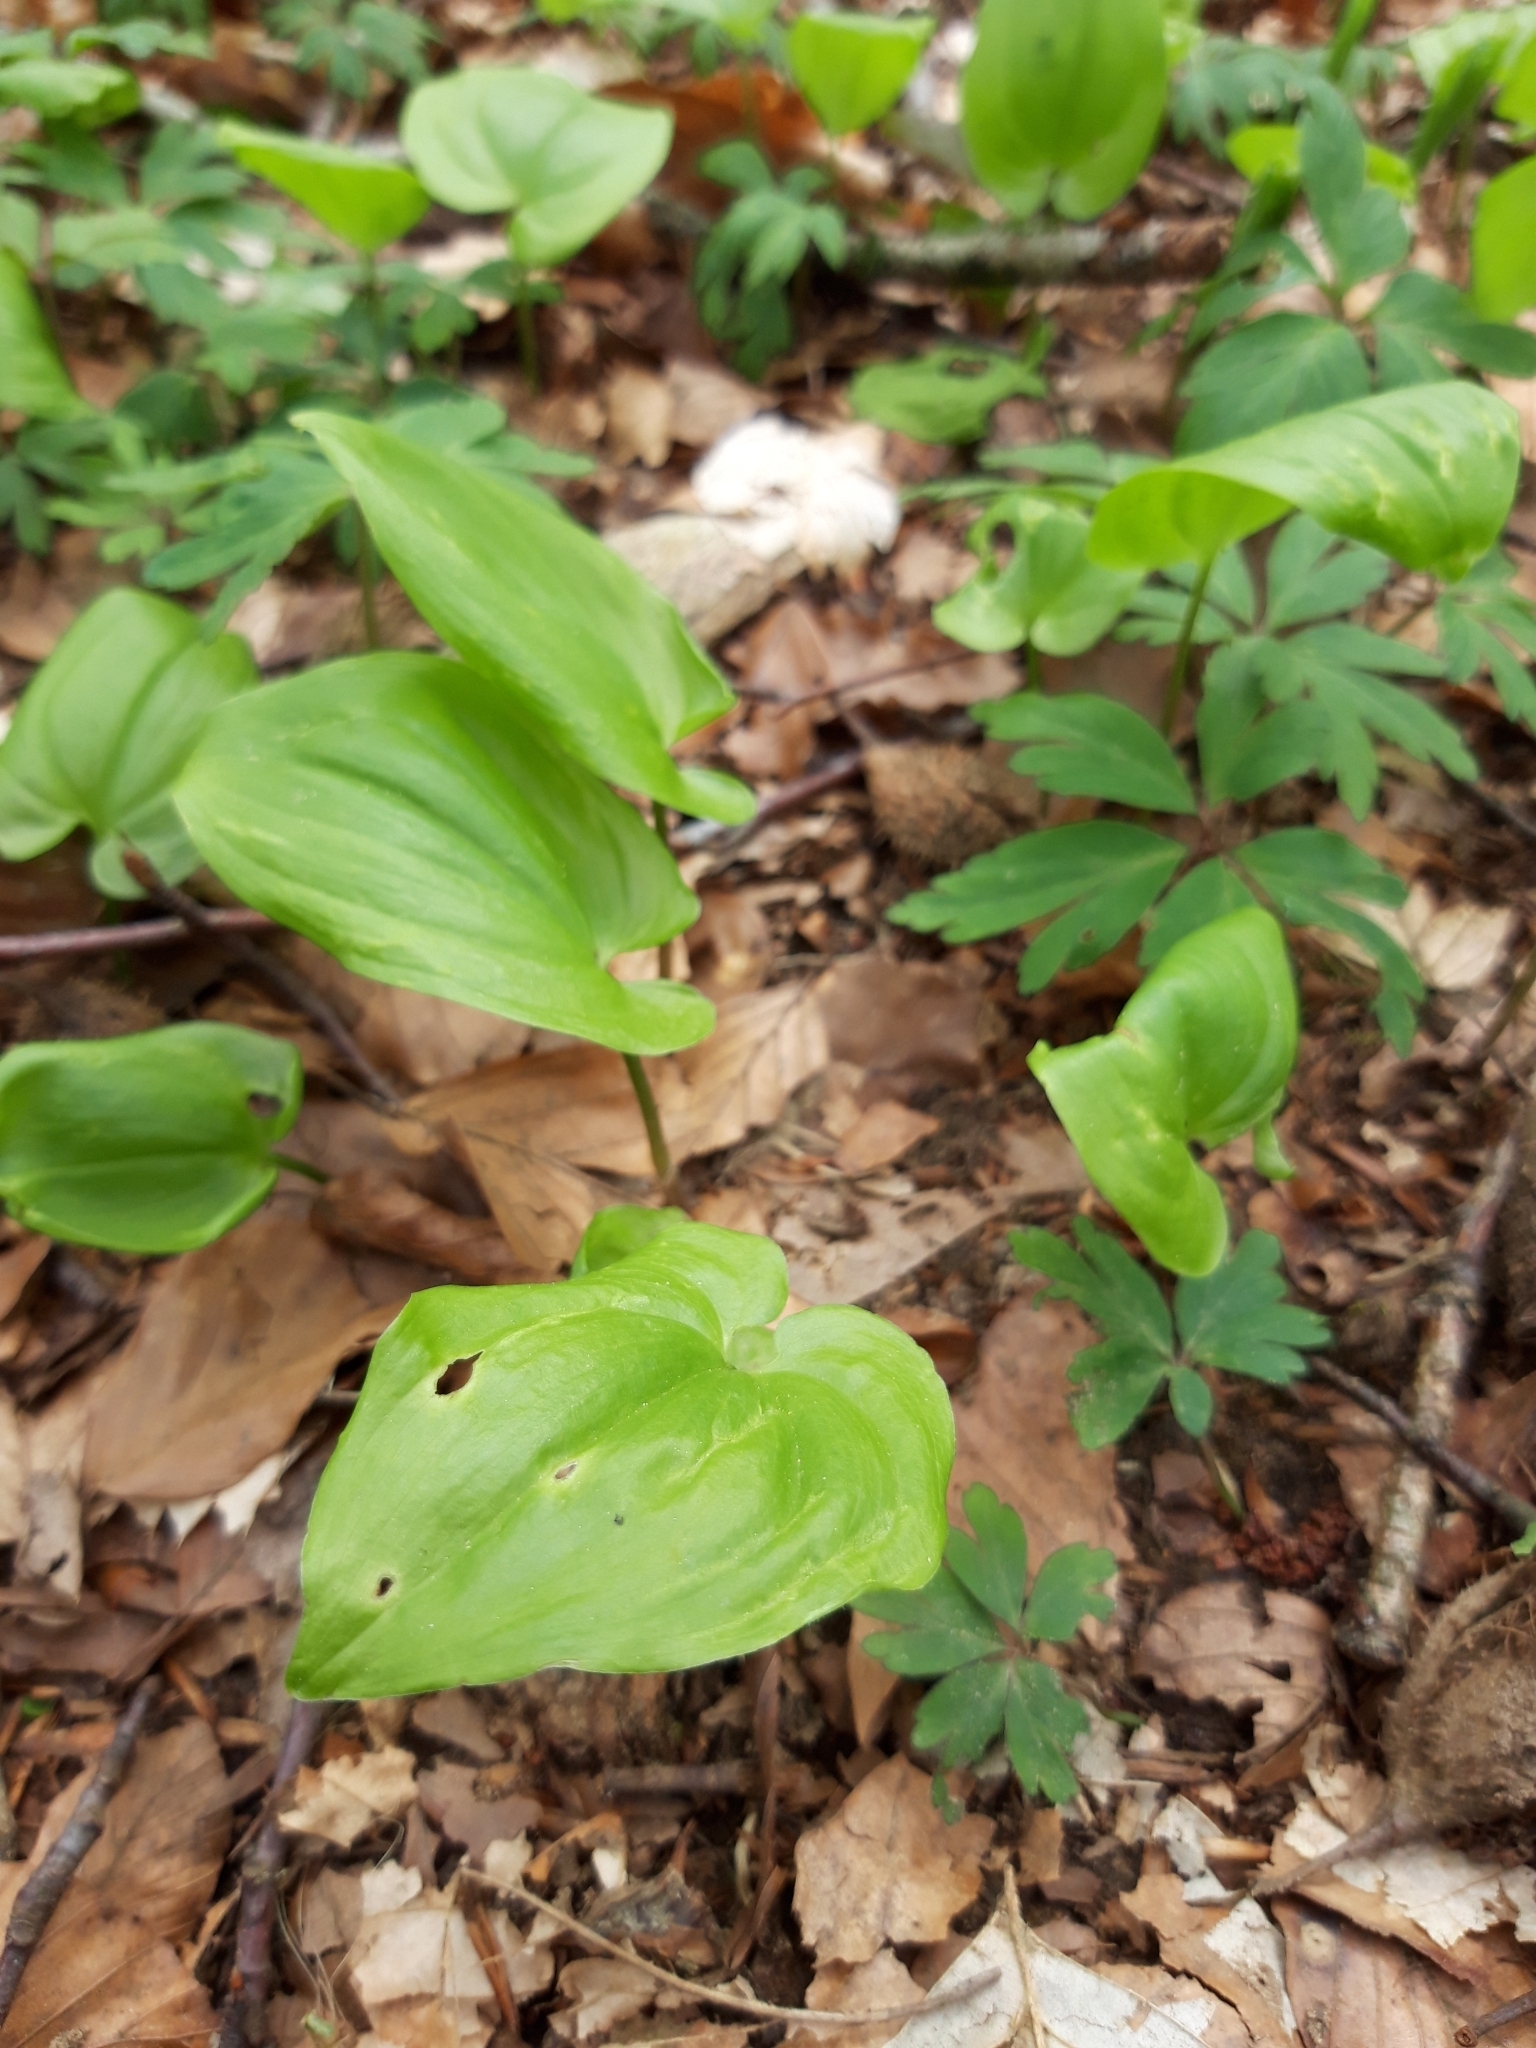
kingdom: Plantae
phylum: Tracheophyta
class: Liliopsida
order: Asparagales
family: Asparagaceae
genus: Maianthemum
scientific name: Maianthemum bifolium
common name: May lily
